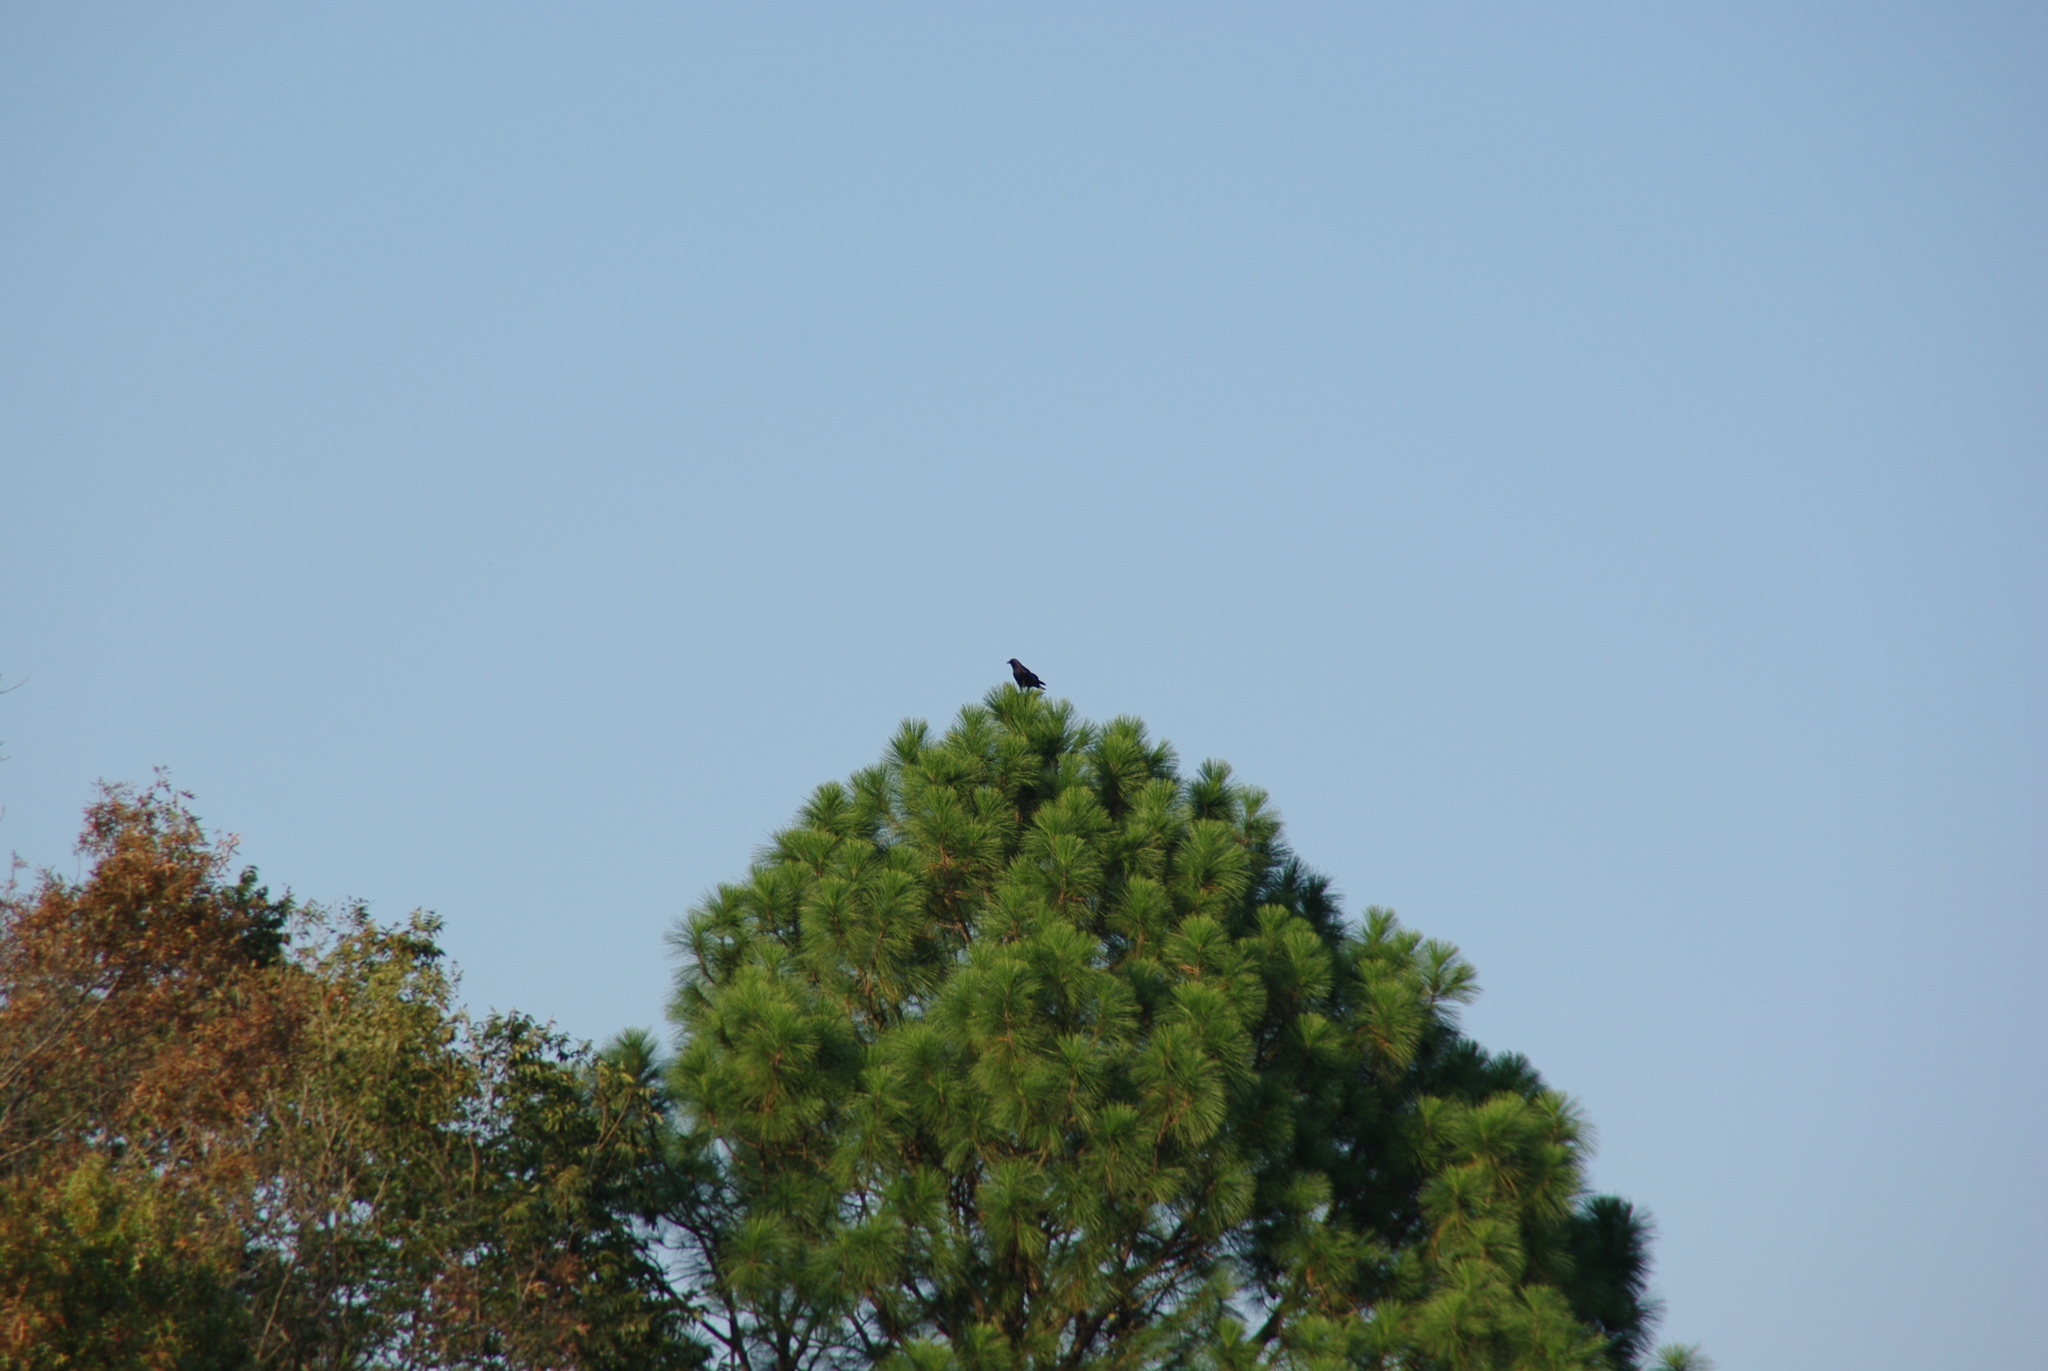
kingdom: Animalia
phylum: Chordata
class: Aves
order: Passeriformes
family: Corvidae
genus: Corvus
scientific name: Corvus
